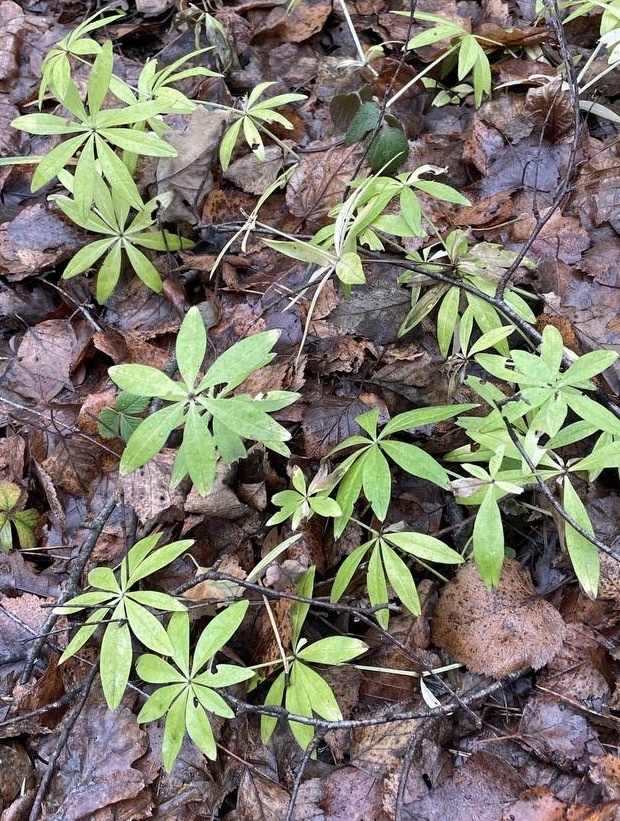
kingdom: Plantae
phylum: Tracheophyta
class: Magnoliopsida
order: Gentianales
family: Rubiaceae
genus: Galium
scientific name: Galium odoratum
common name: Sweet woodruff
